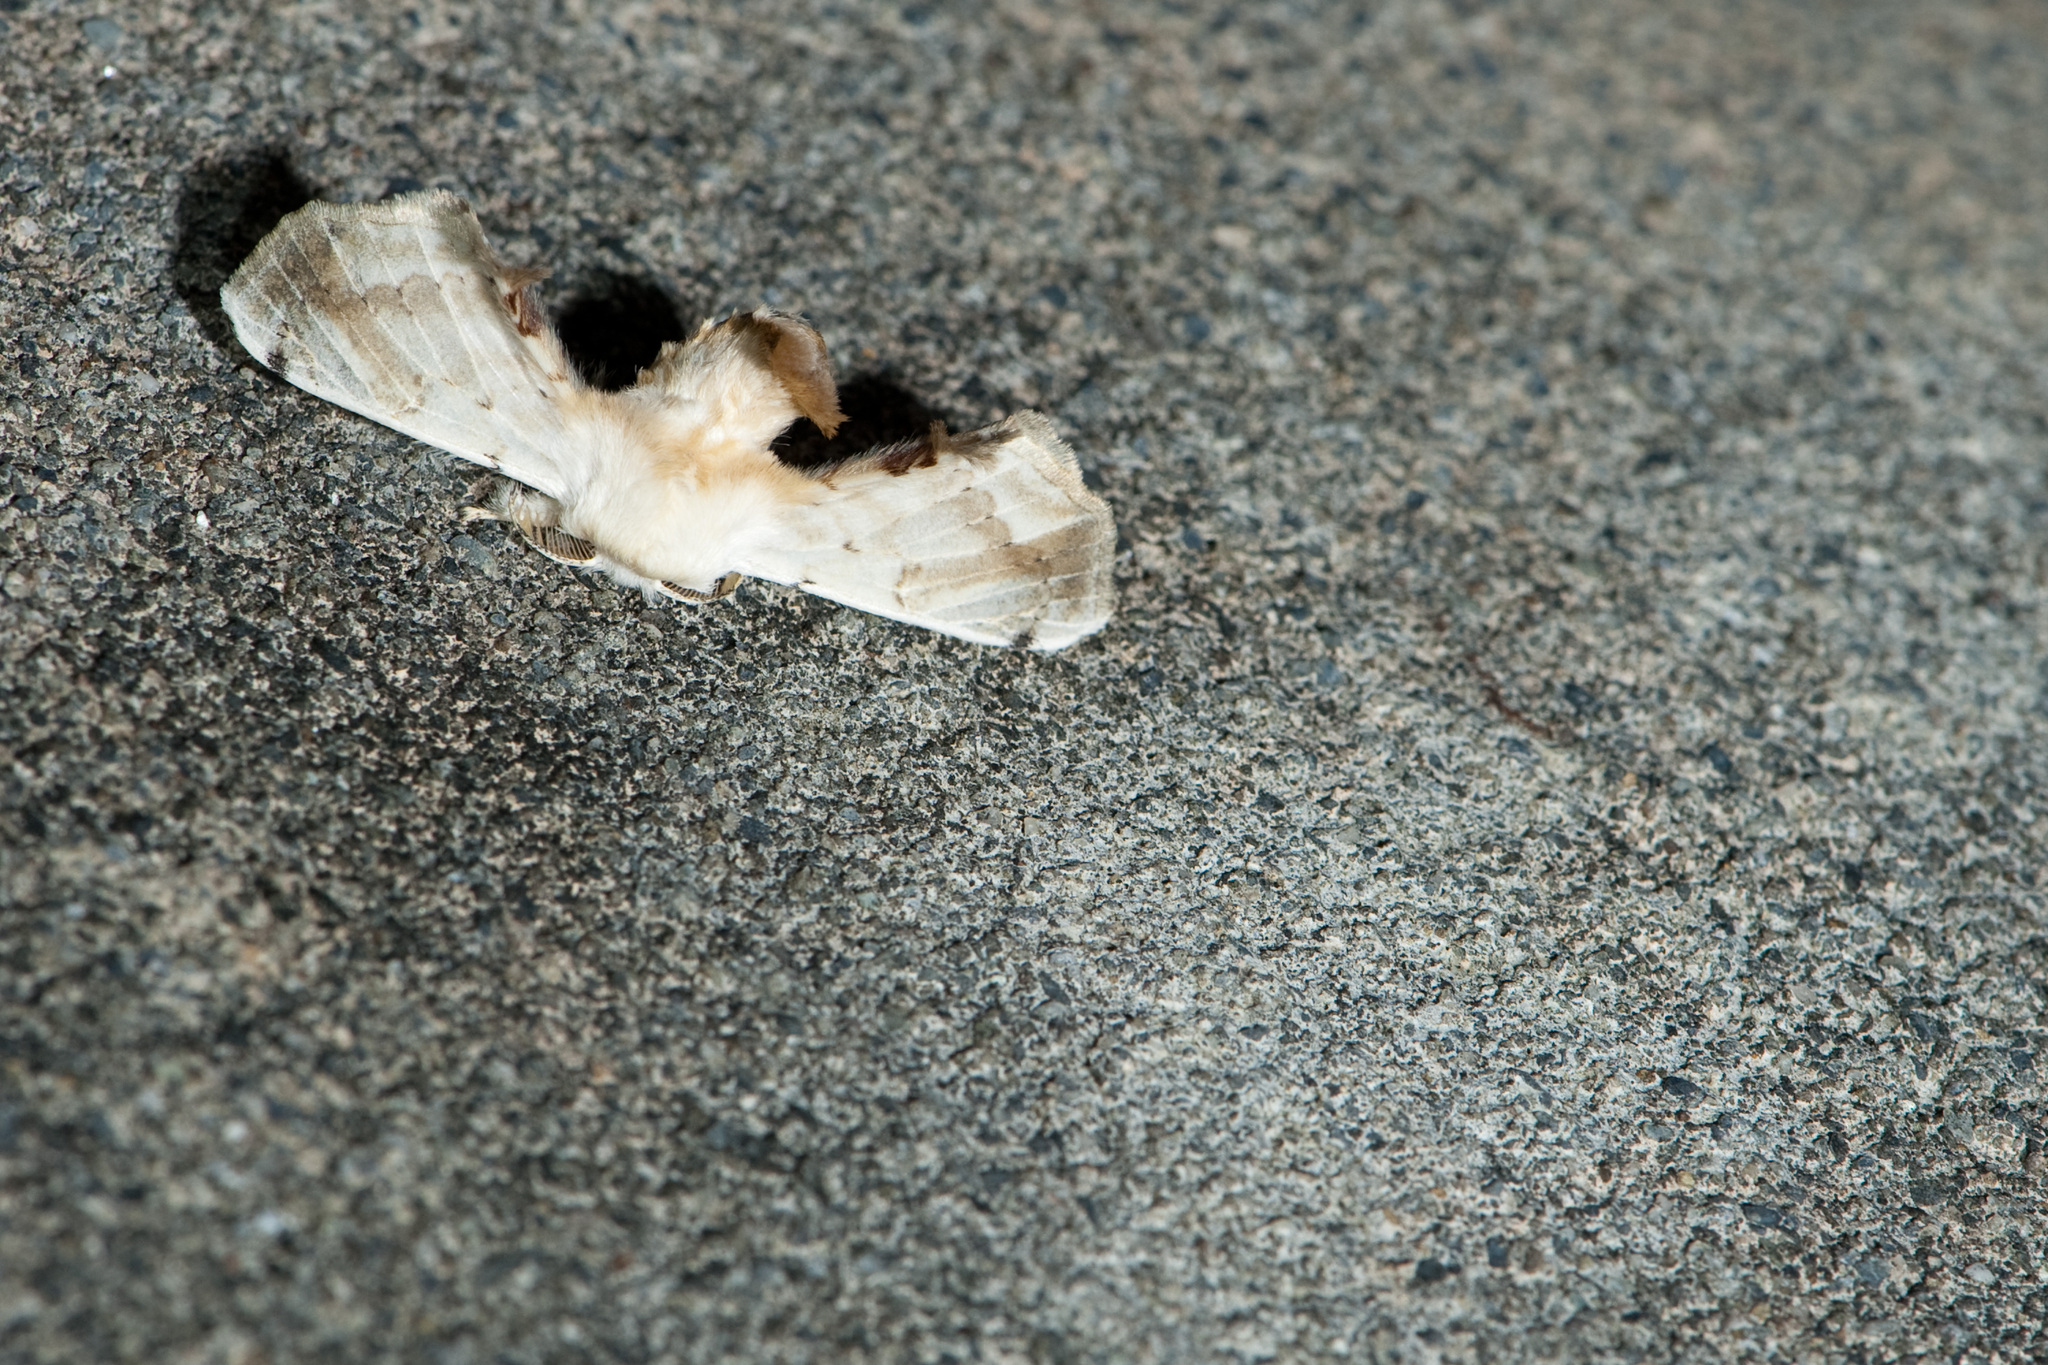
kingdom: Animalia
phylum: Arthropoda
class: Insecta
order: Lepidoptera
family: Bombycidae
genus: Ernolatia
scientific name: Ernolatia moorei
